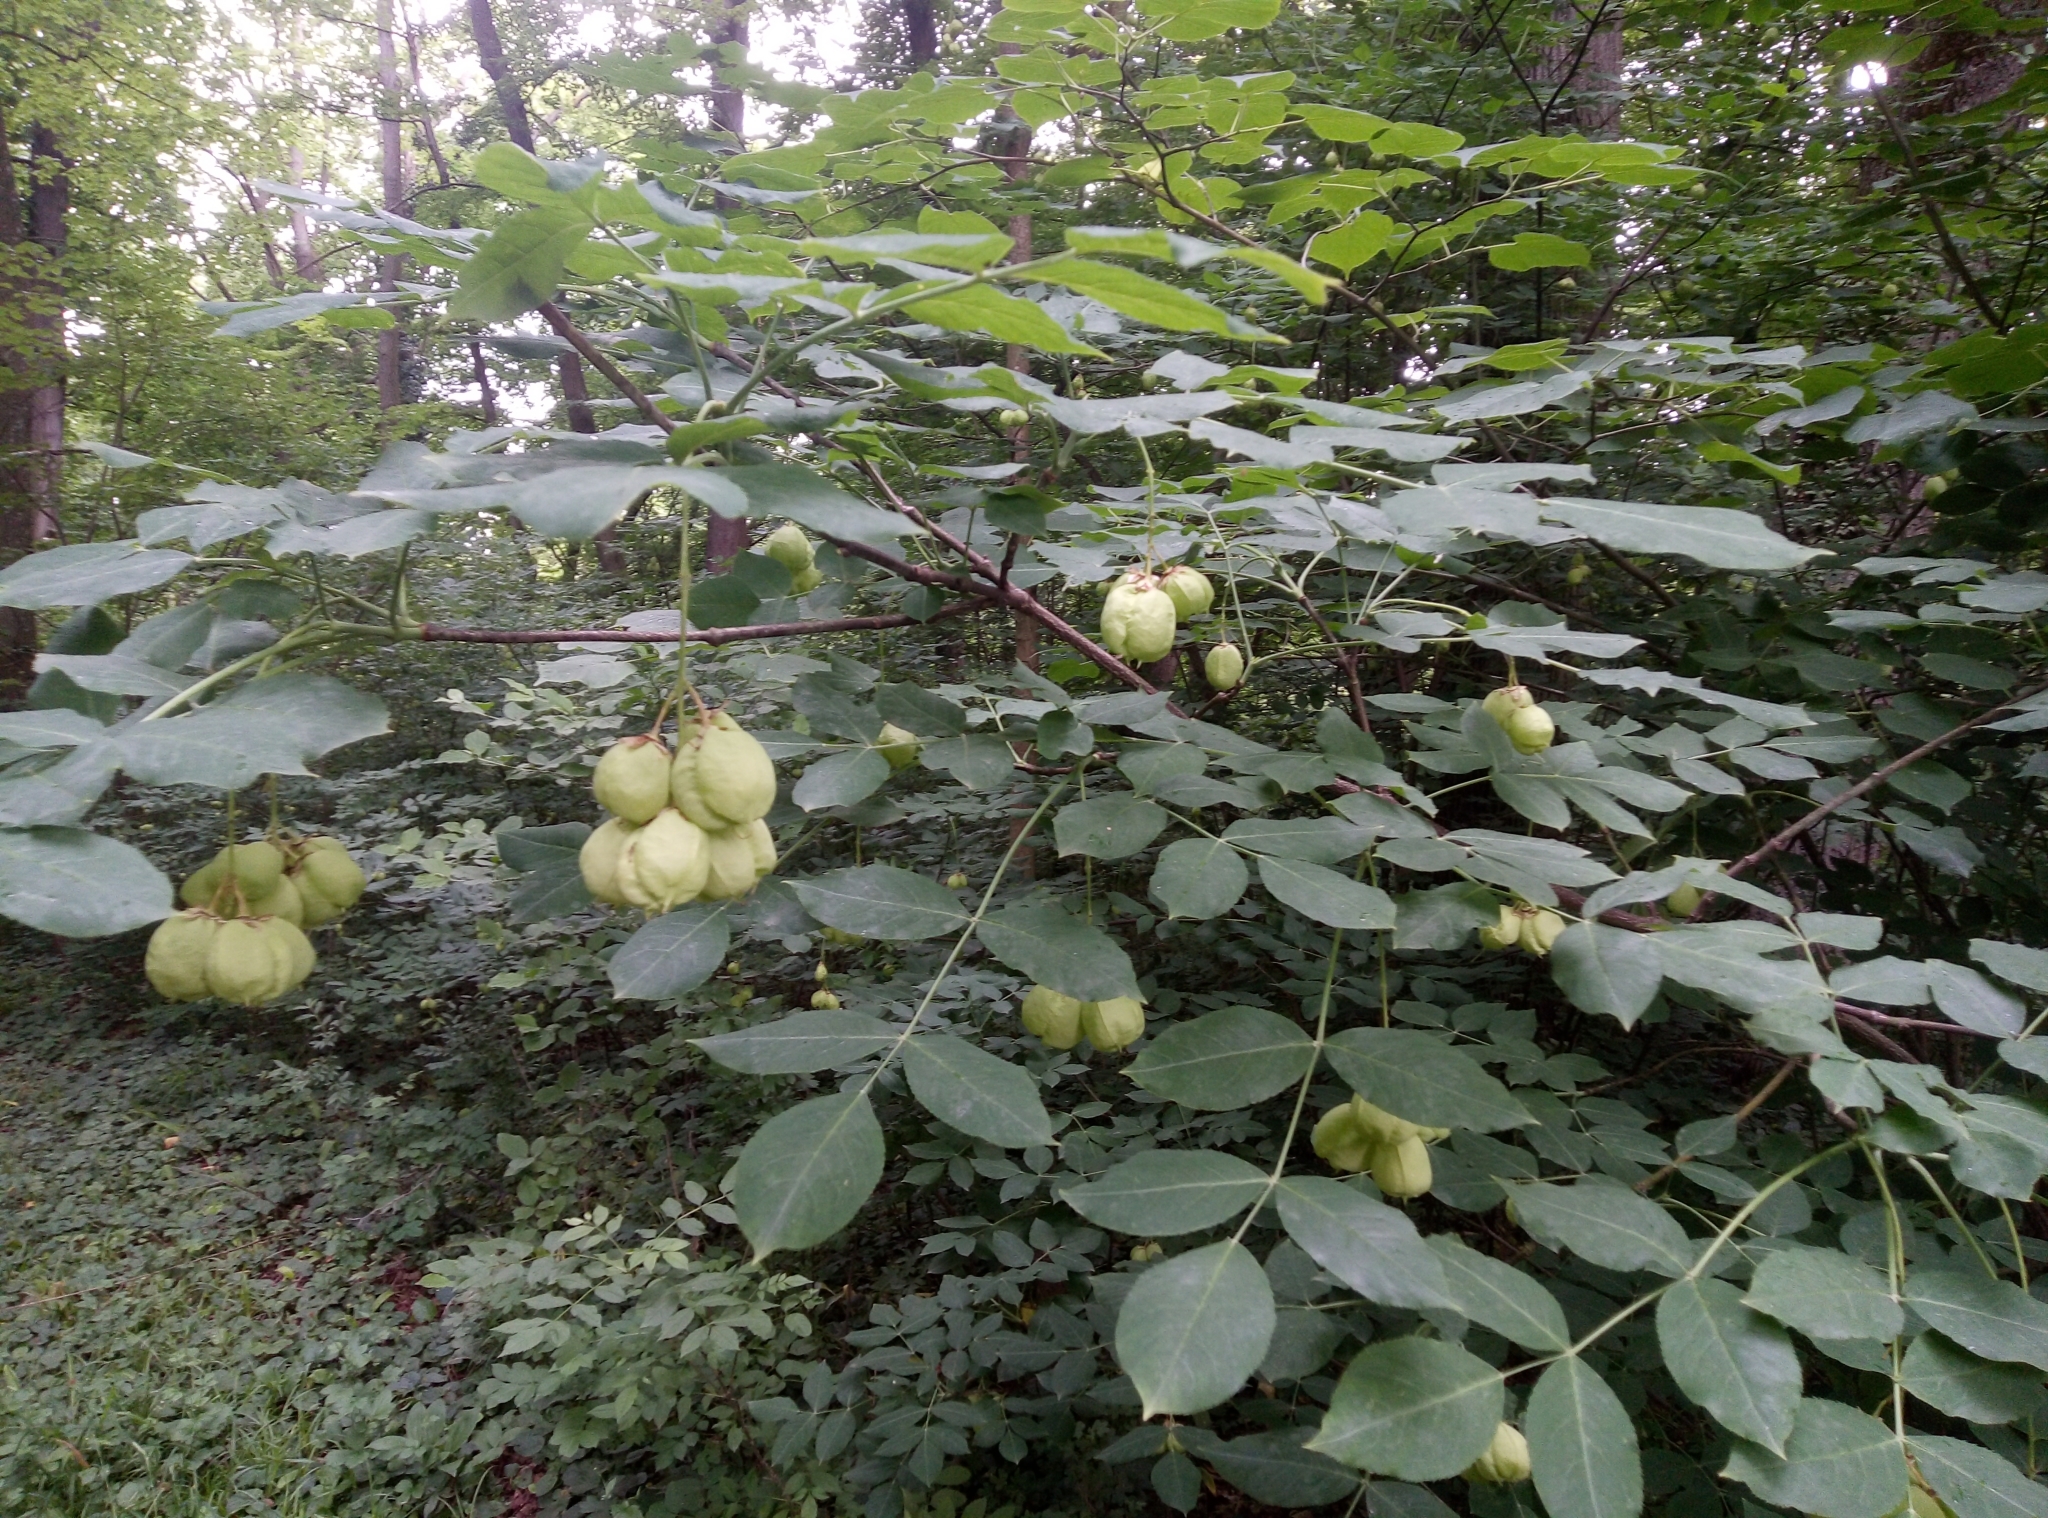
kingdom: Plantae
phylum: Tracheophyta
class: Magnoliopsida
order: Crossosomatales
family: Staphyleaceae
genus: Staphylea
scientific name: Staphylea pinnata
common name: Bladdernut
